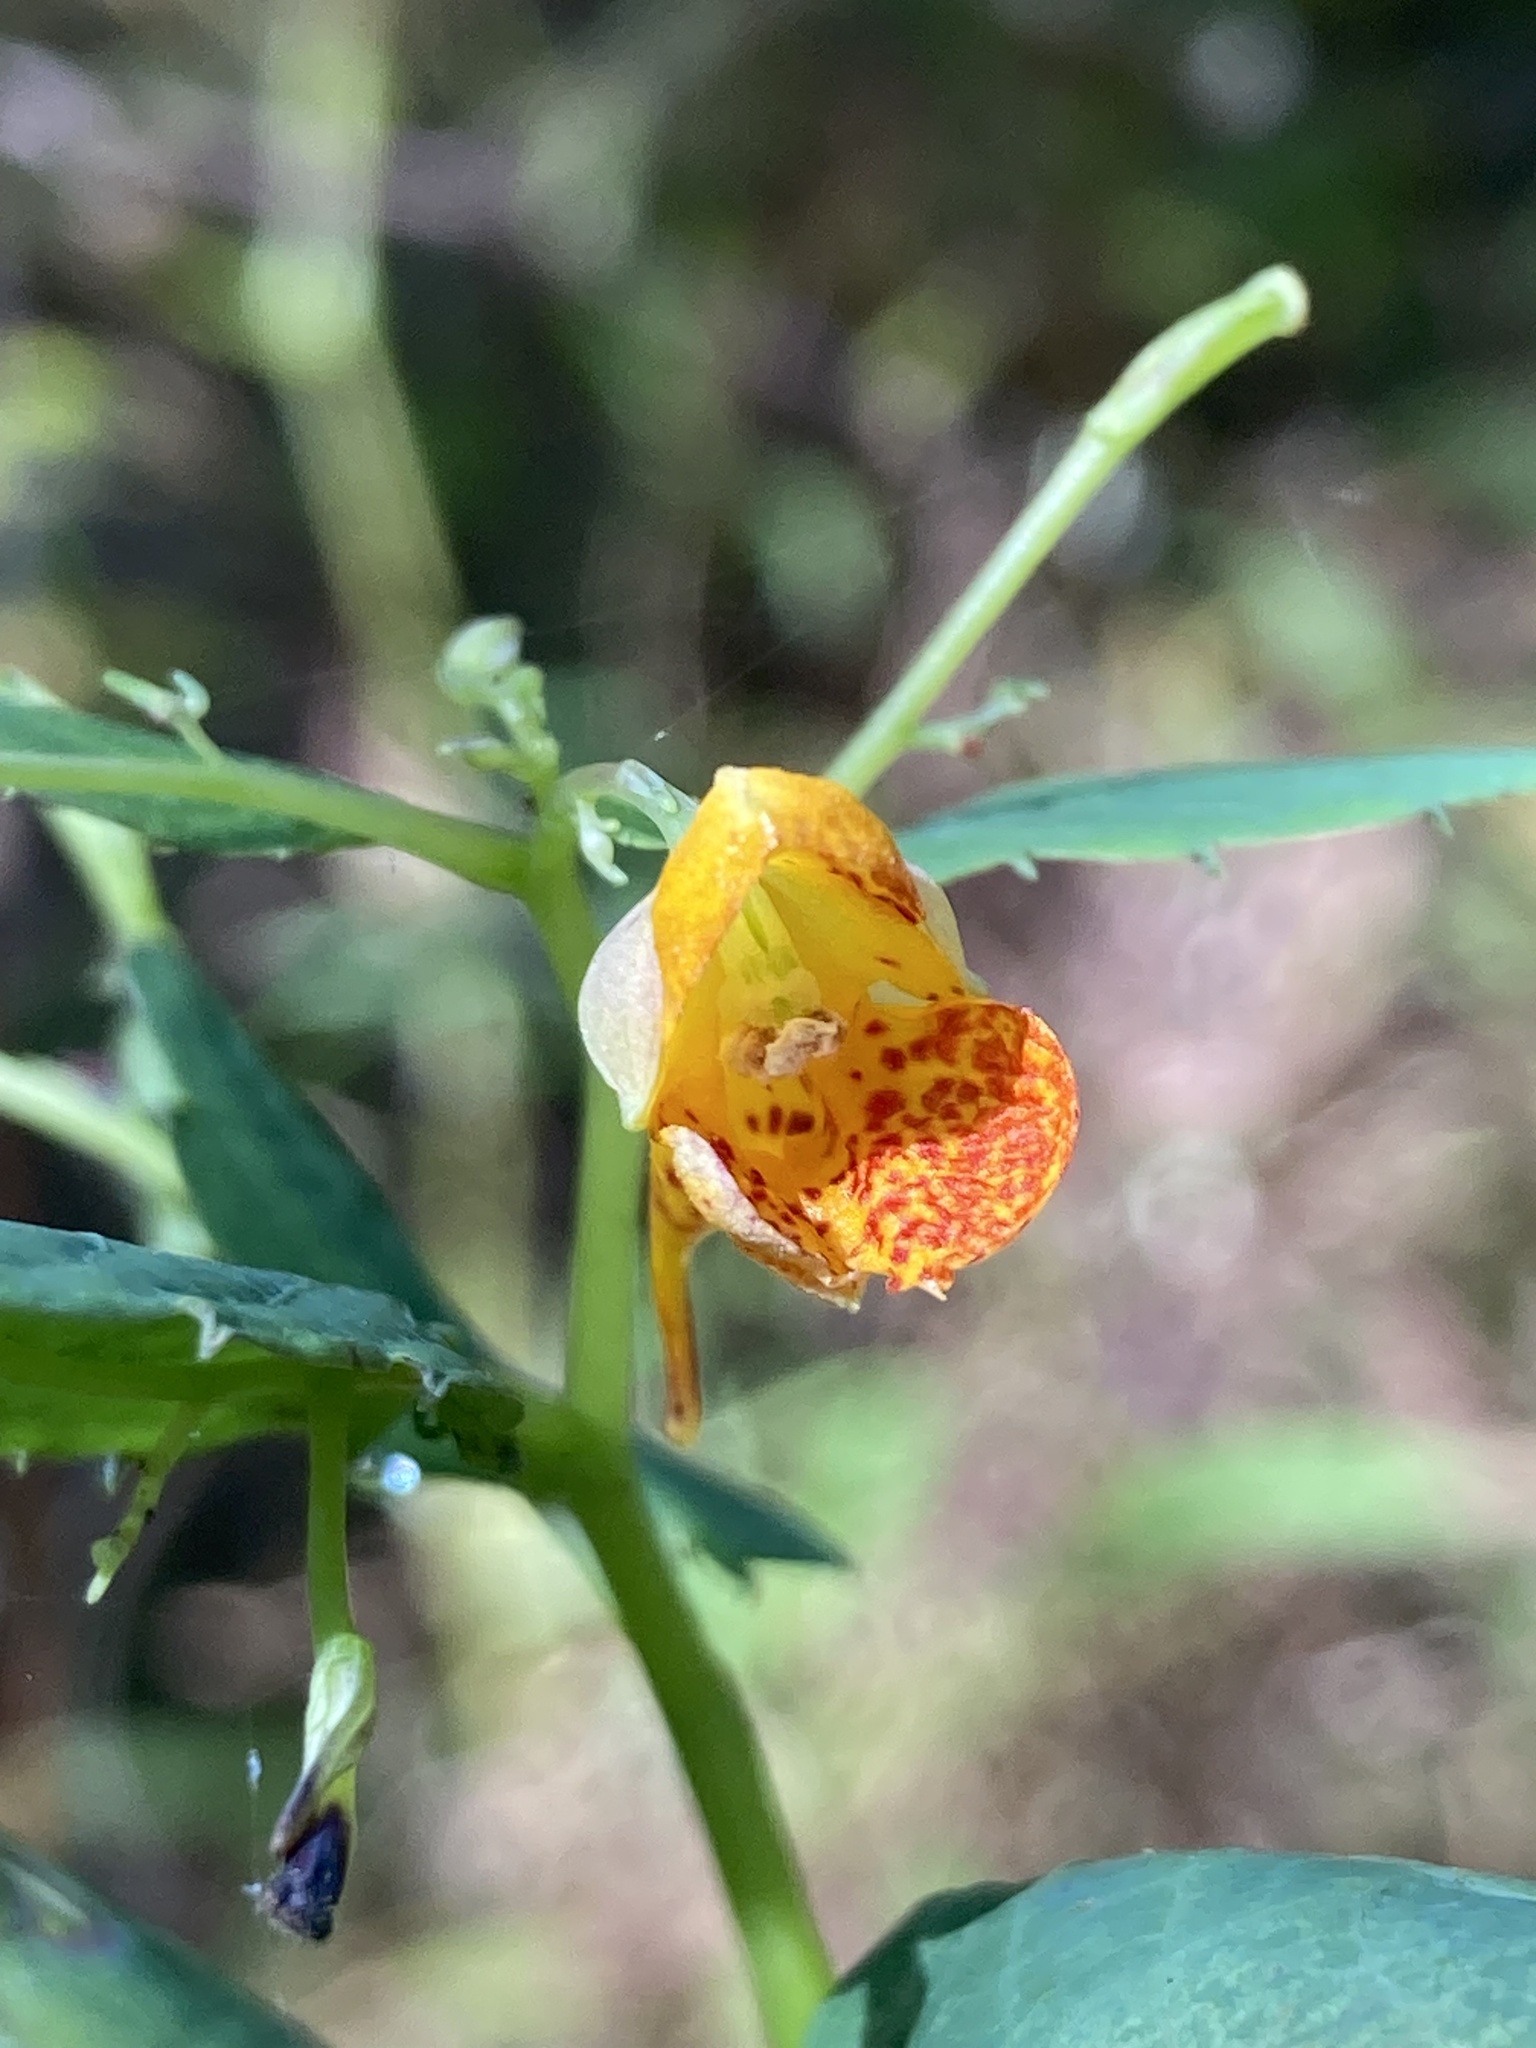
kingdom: Plantae
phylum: Tracheophyta
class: Magnoliopsida
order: Ericales
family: Balsaminaceae
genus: Impatiens
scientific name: Impatiens capensis
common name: Orange balsam
